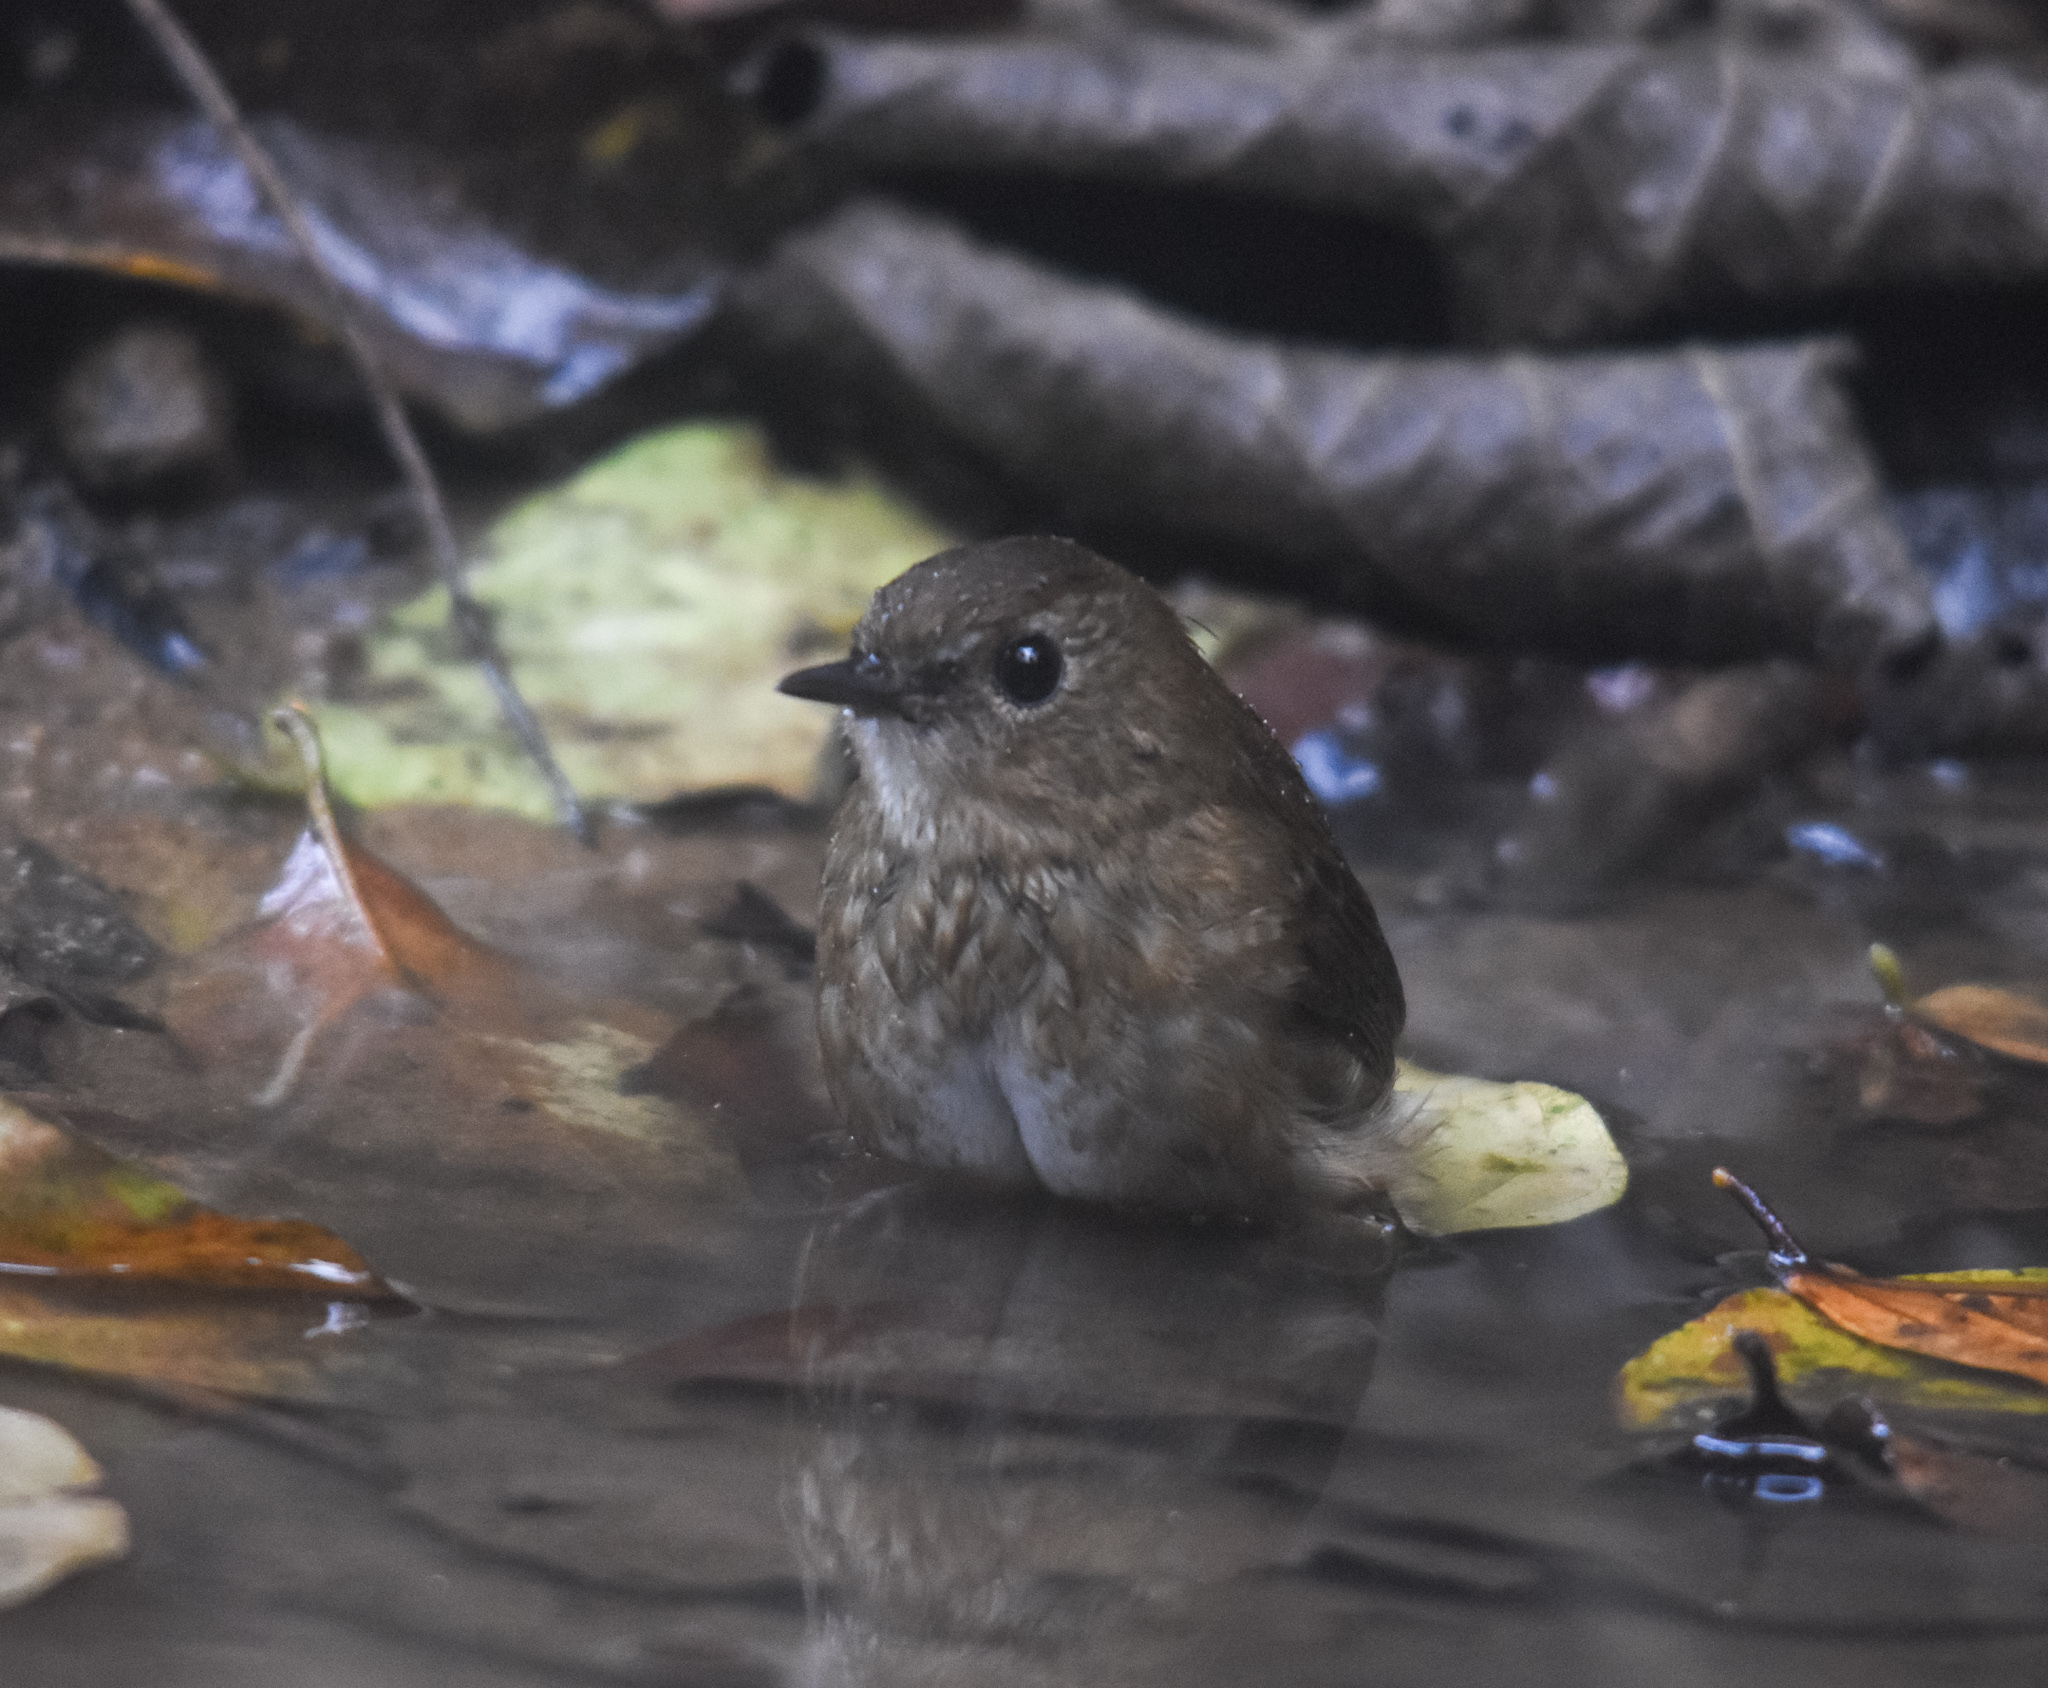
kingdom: Animalia
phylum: Chordata
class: Aves
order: Passeriformes
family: Muscicapidae
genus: Brachypteryx
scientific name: Brachypteryx leucophris
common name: Lesser shortwing
